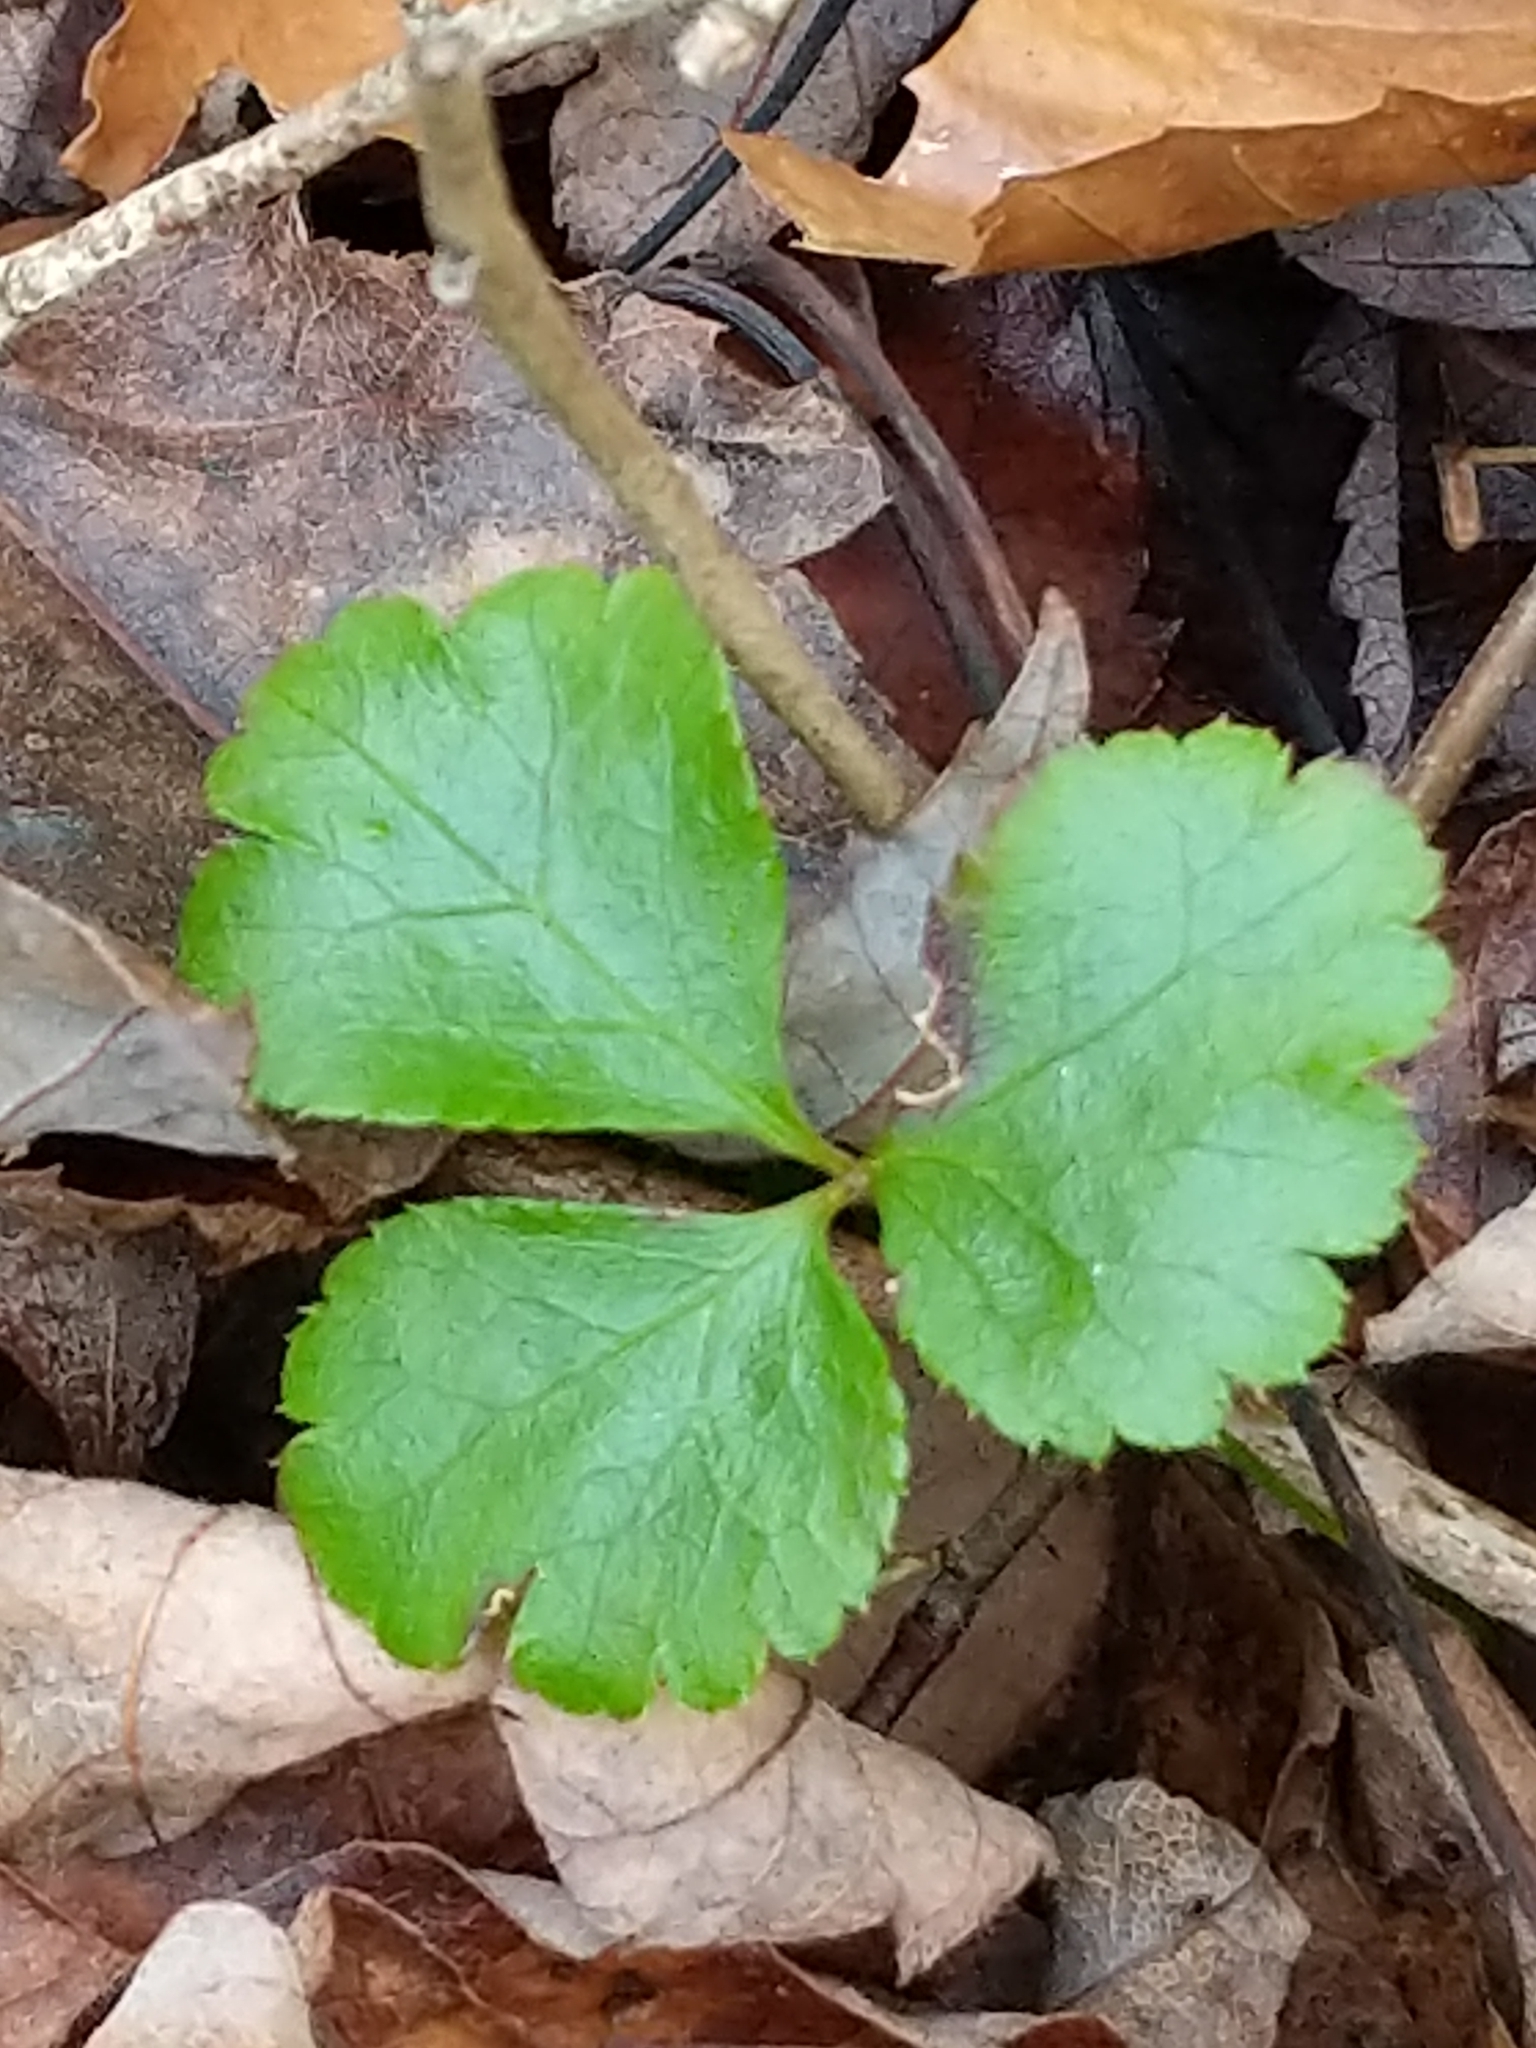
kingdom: Plantae
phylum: Tracheophyta
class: Magnoliopsida
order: Ranunculales
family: Ranunculaceae
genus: Coptis
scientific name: Coptis trifolia
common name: Canker-root
